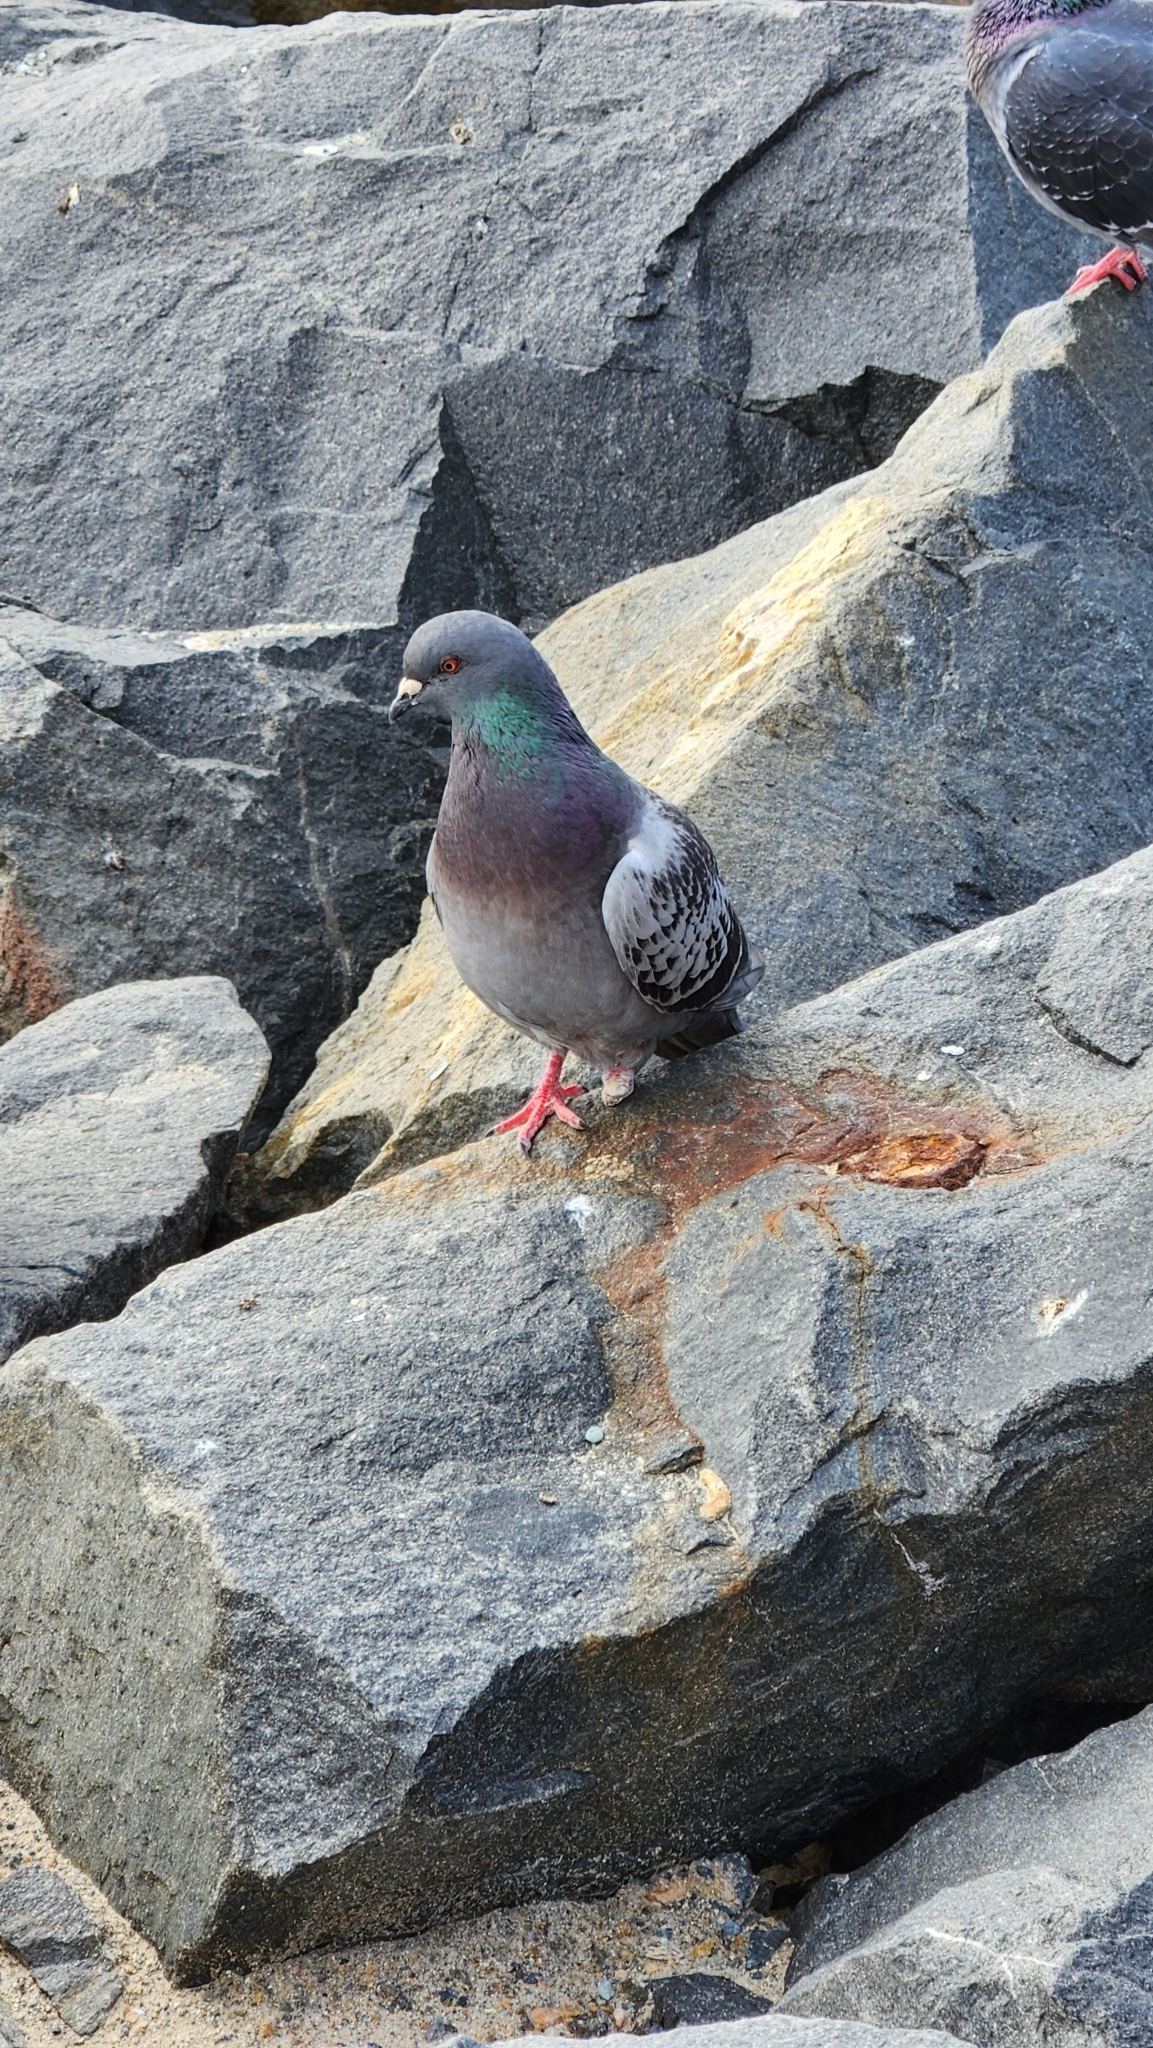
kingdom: Animalia
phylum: Chordata
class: Aves
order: Columbiformes
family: Columbidae
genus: Columba
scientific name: Columba livia
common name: Rock pigeon
